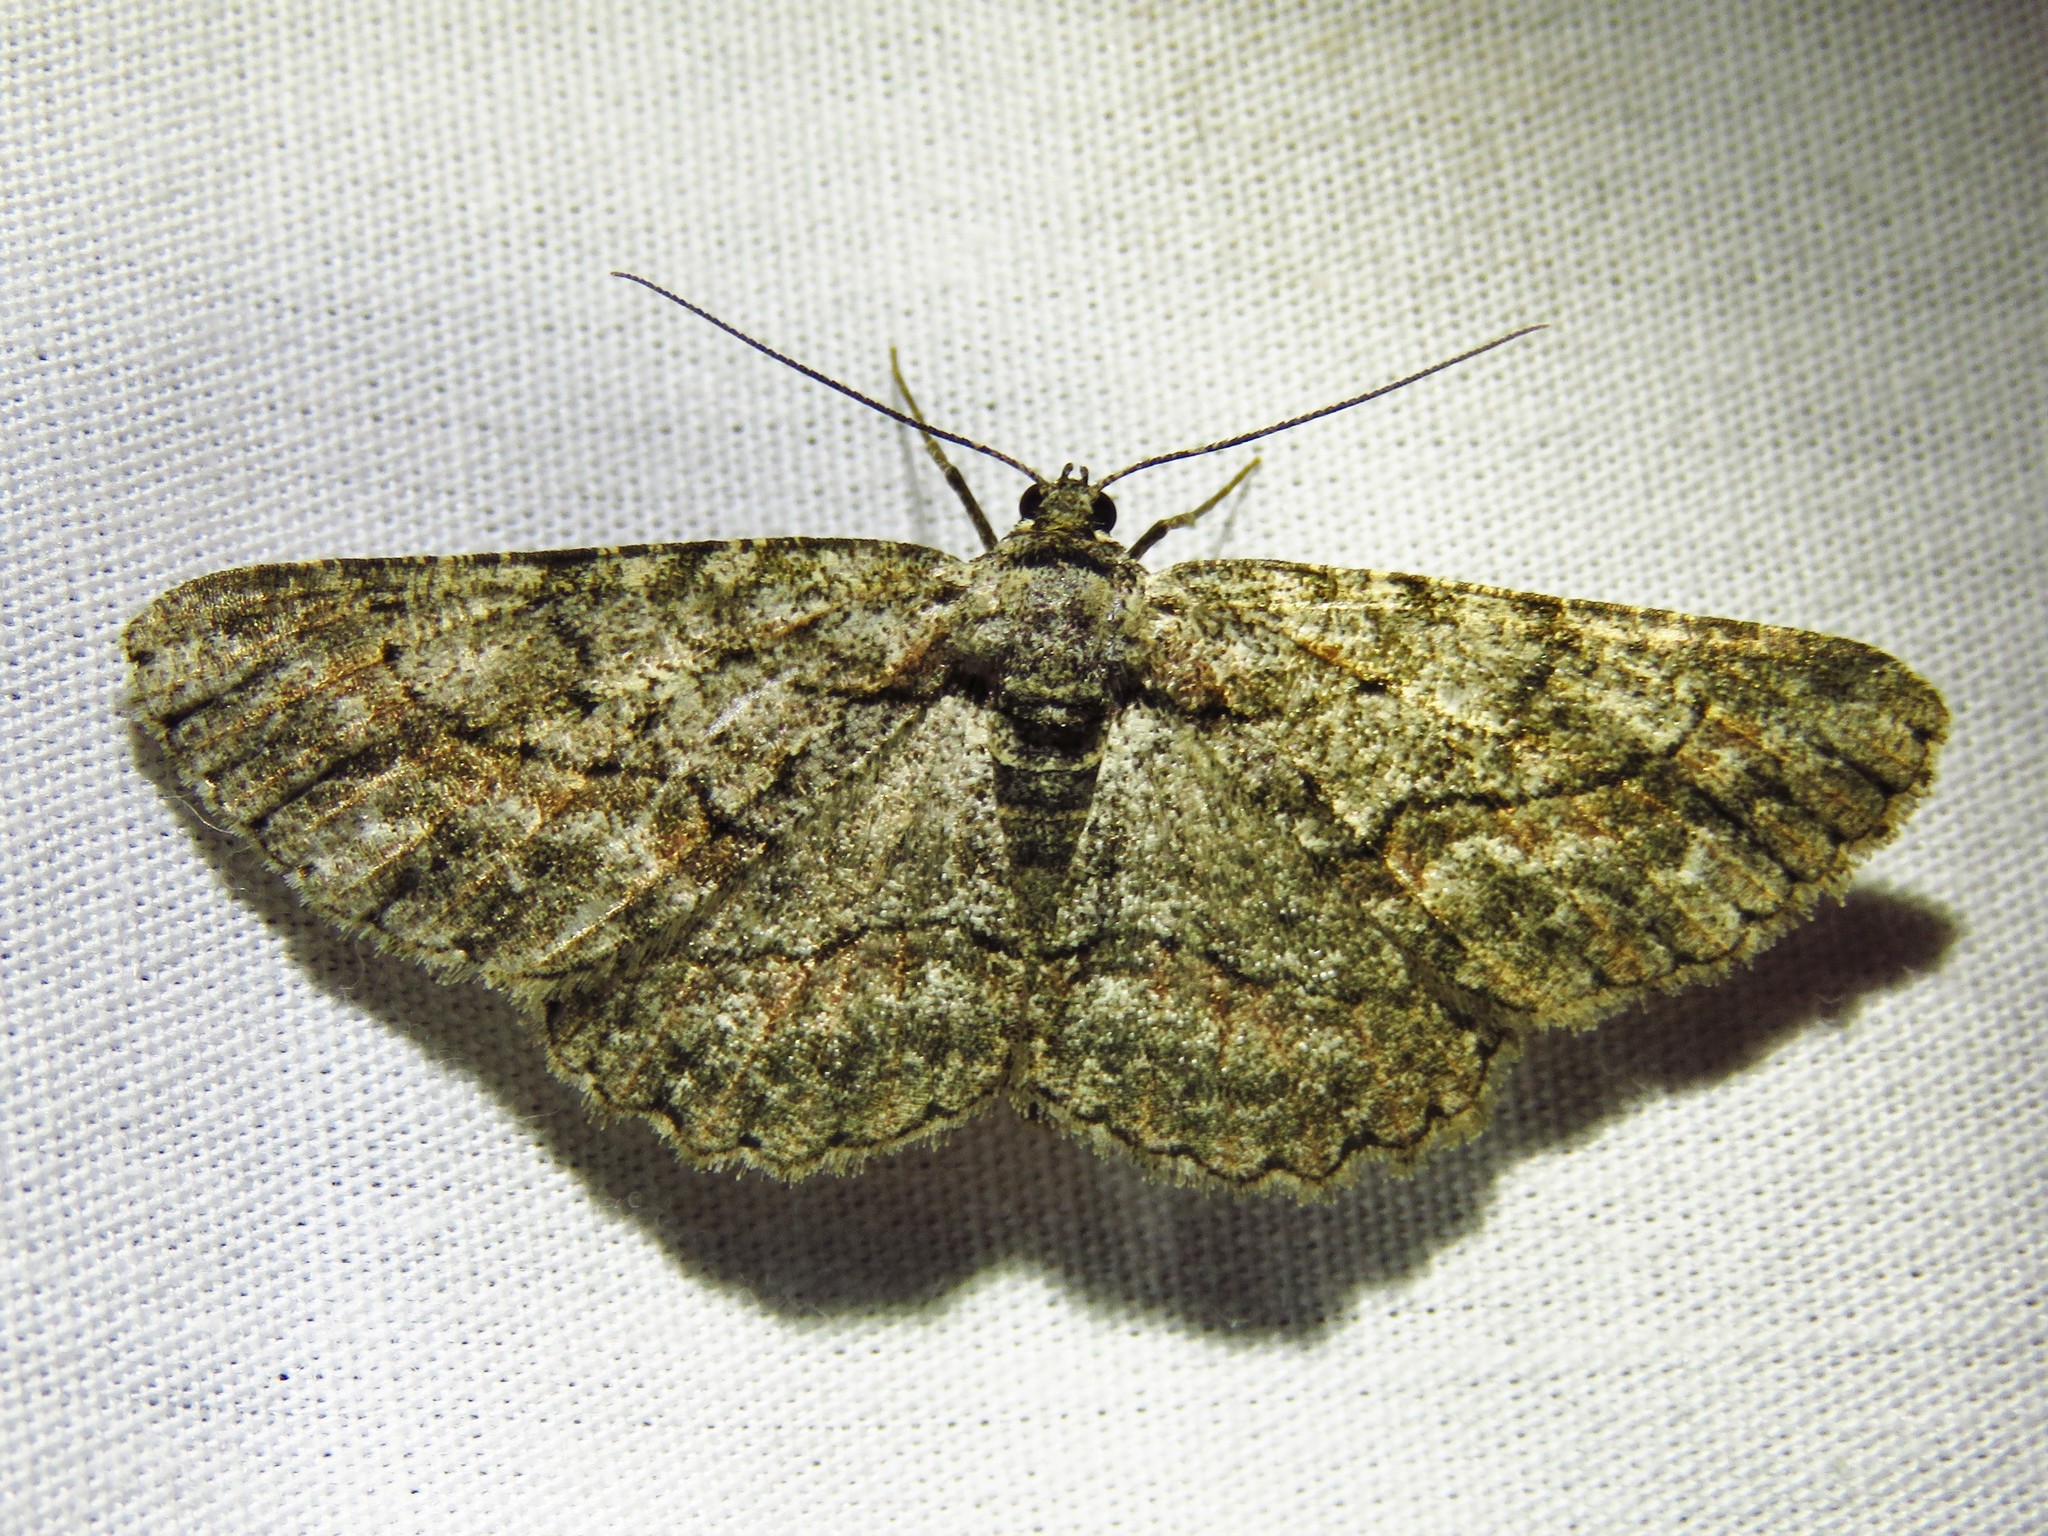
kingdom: Animalia
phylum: Arthropoda
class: Insecta
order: Lepidoptera
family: Geometridae
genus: Anavitrinella
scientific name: Anavitrinella pampinaria
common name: Common gray
